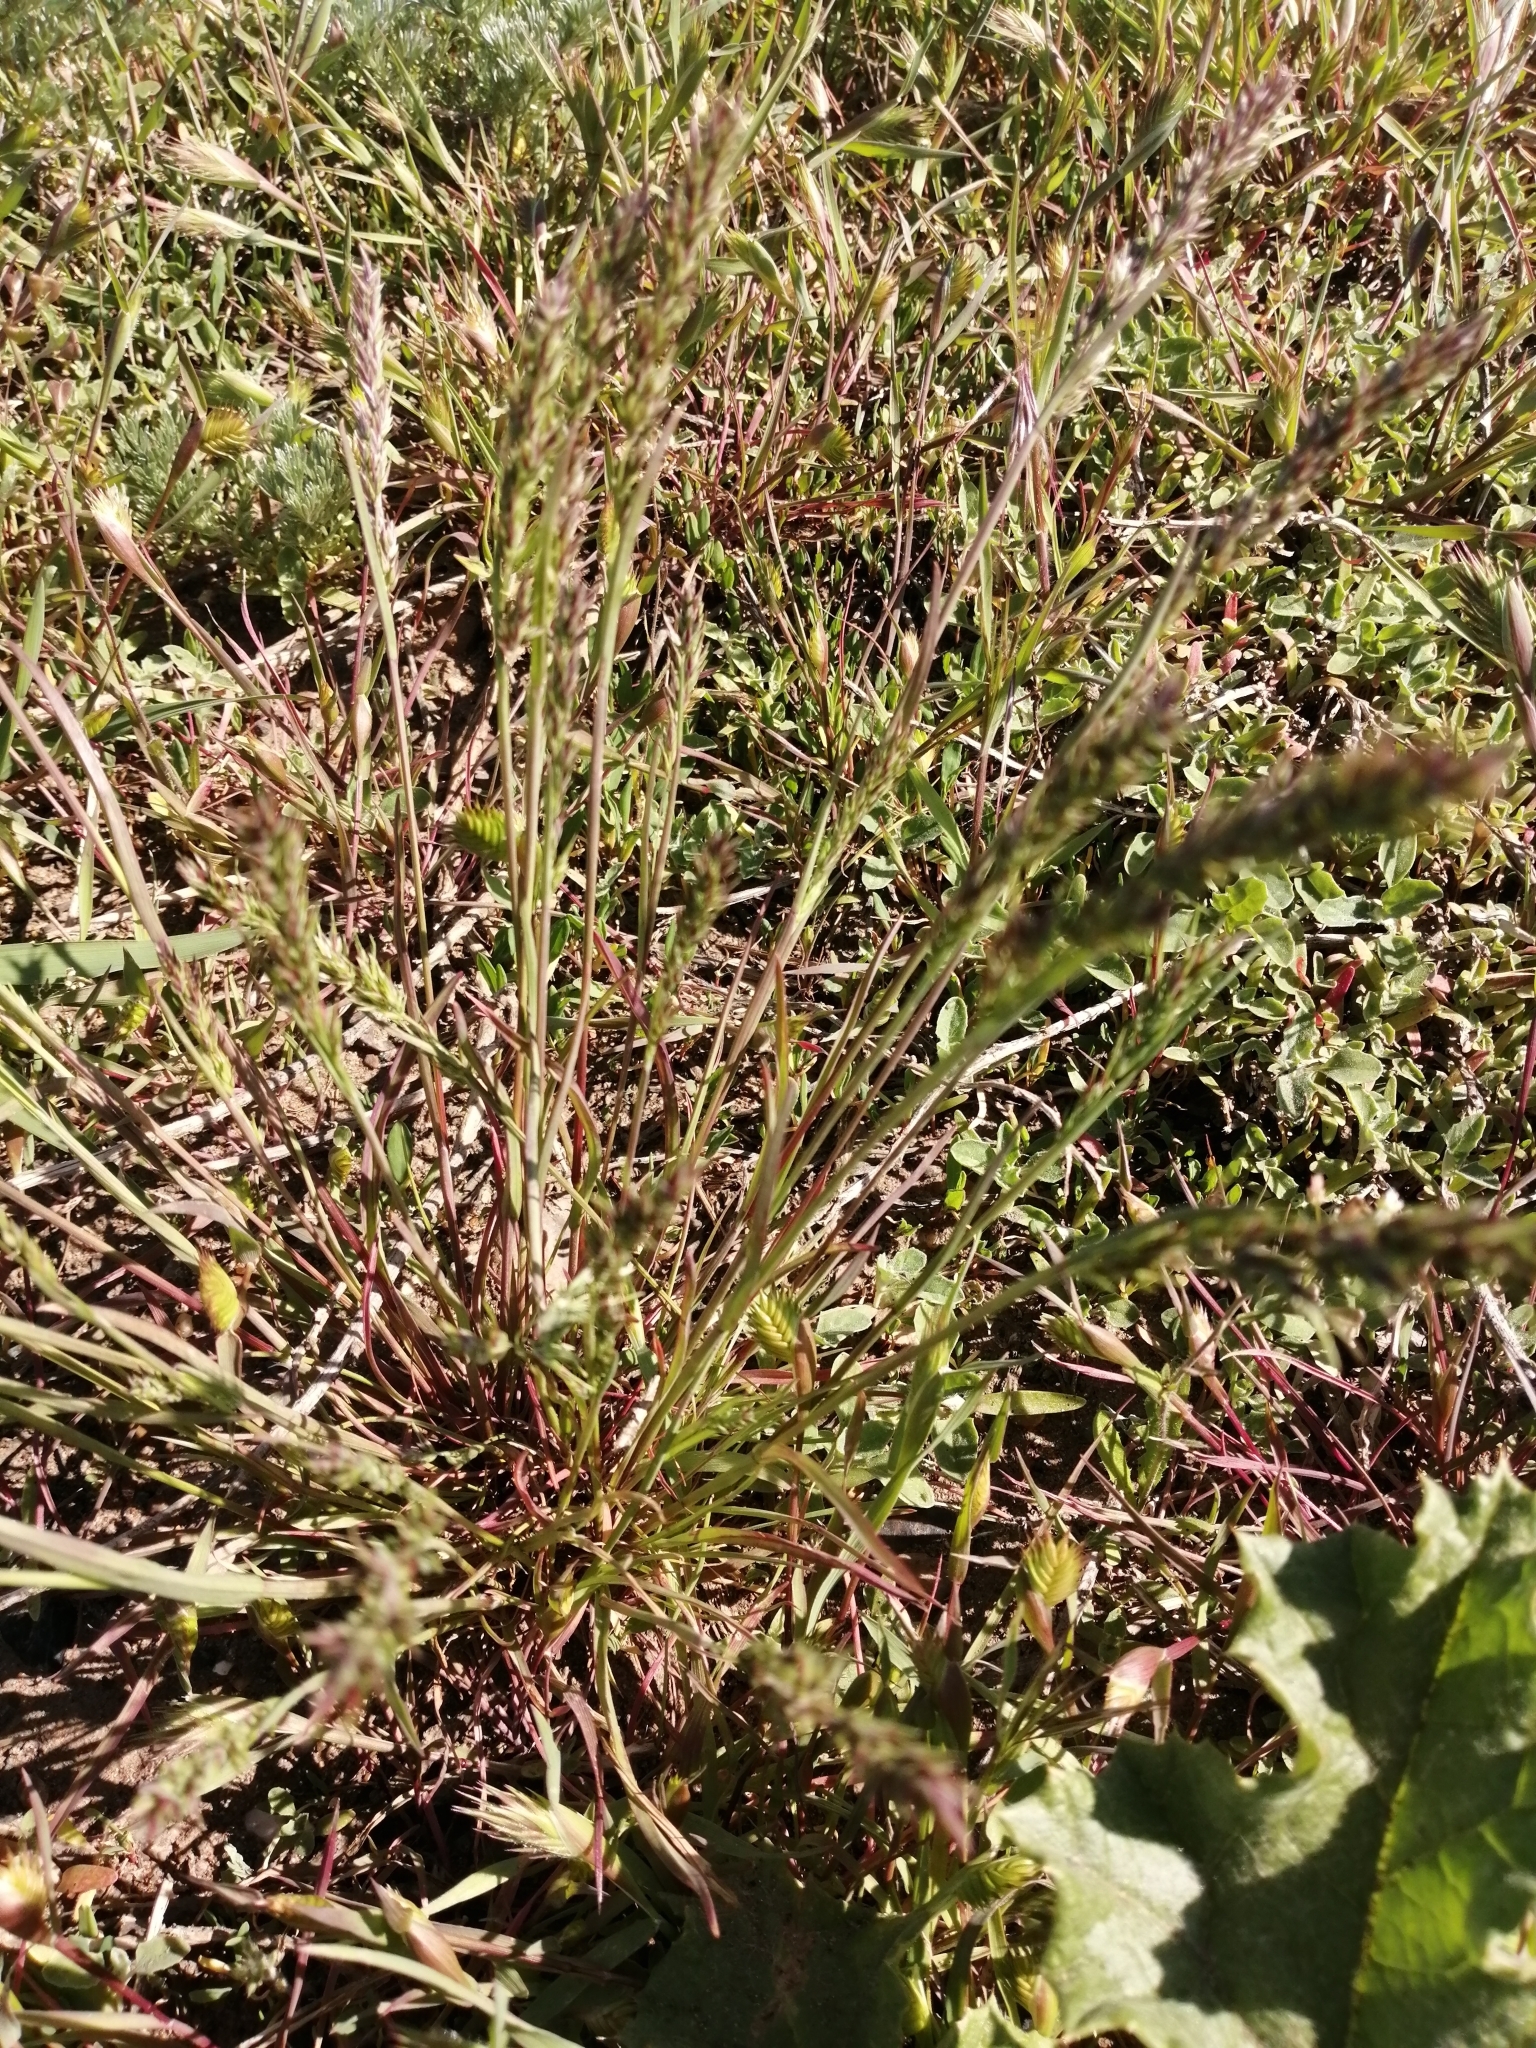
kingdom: Plantae
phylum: Tracheophyta
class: Liliopsida
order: Poales
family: Poaceae
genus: Poa
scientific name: Poa bulbosa
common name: Bulbous bluegrass
